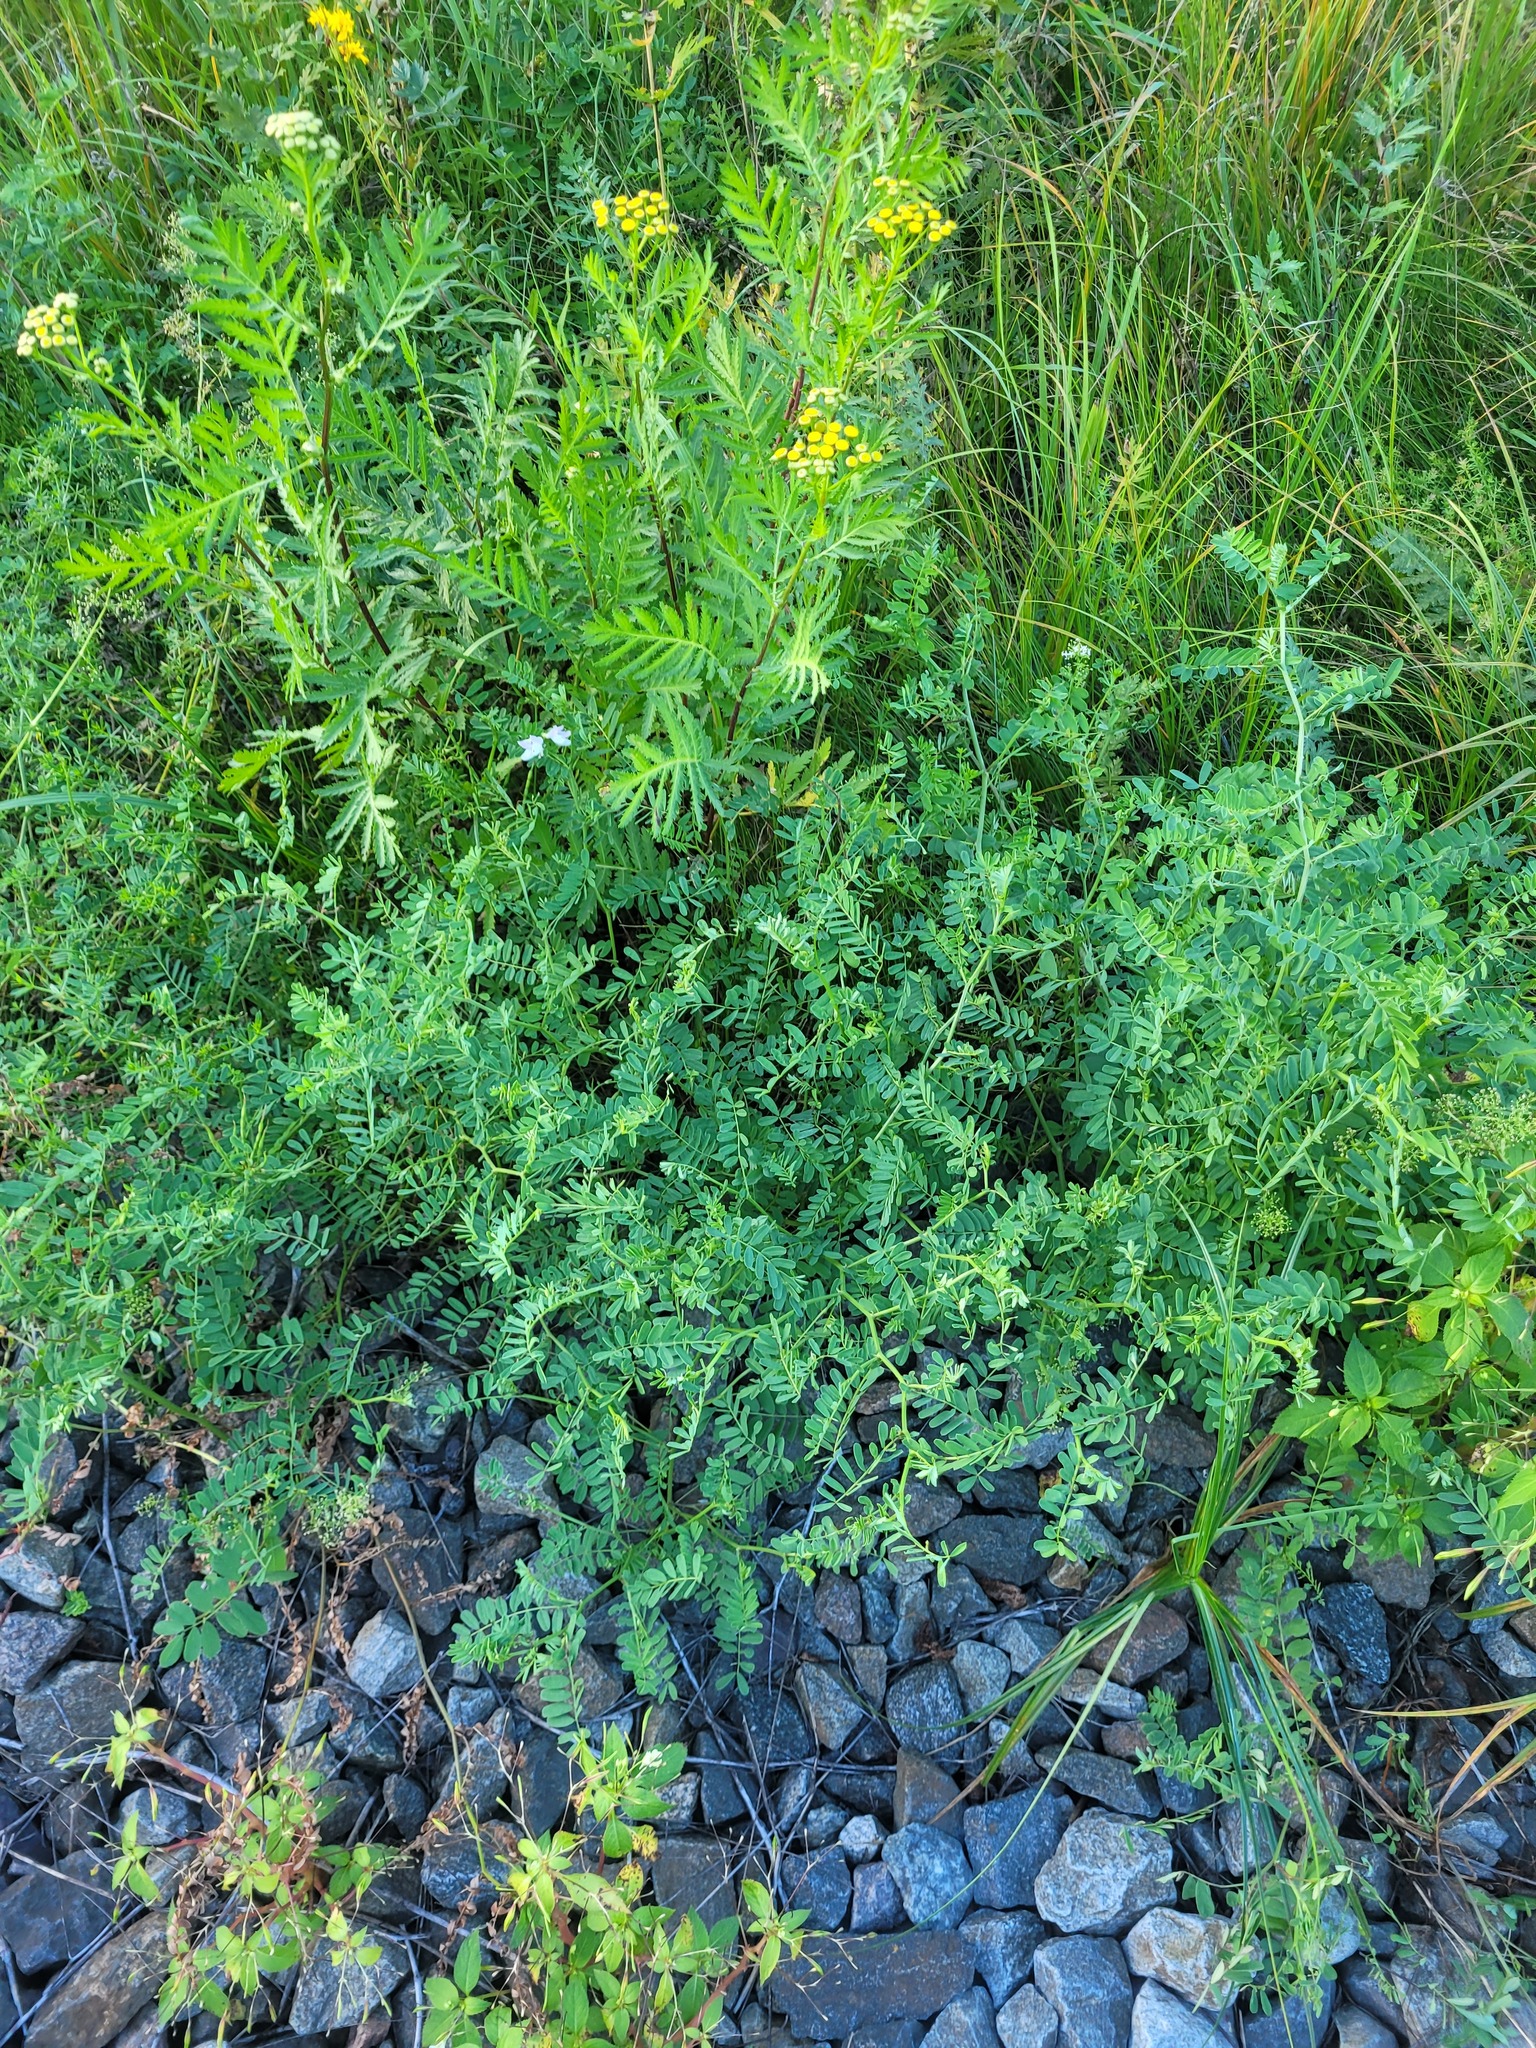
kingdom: Plantae
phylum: Tracheophyta
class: Magnoliopsida
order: Fabales
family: Fabaceae
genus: Coronilla
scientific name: Coronilla varia
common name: Crownvetch
